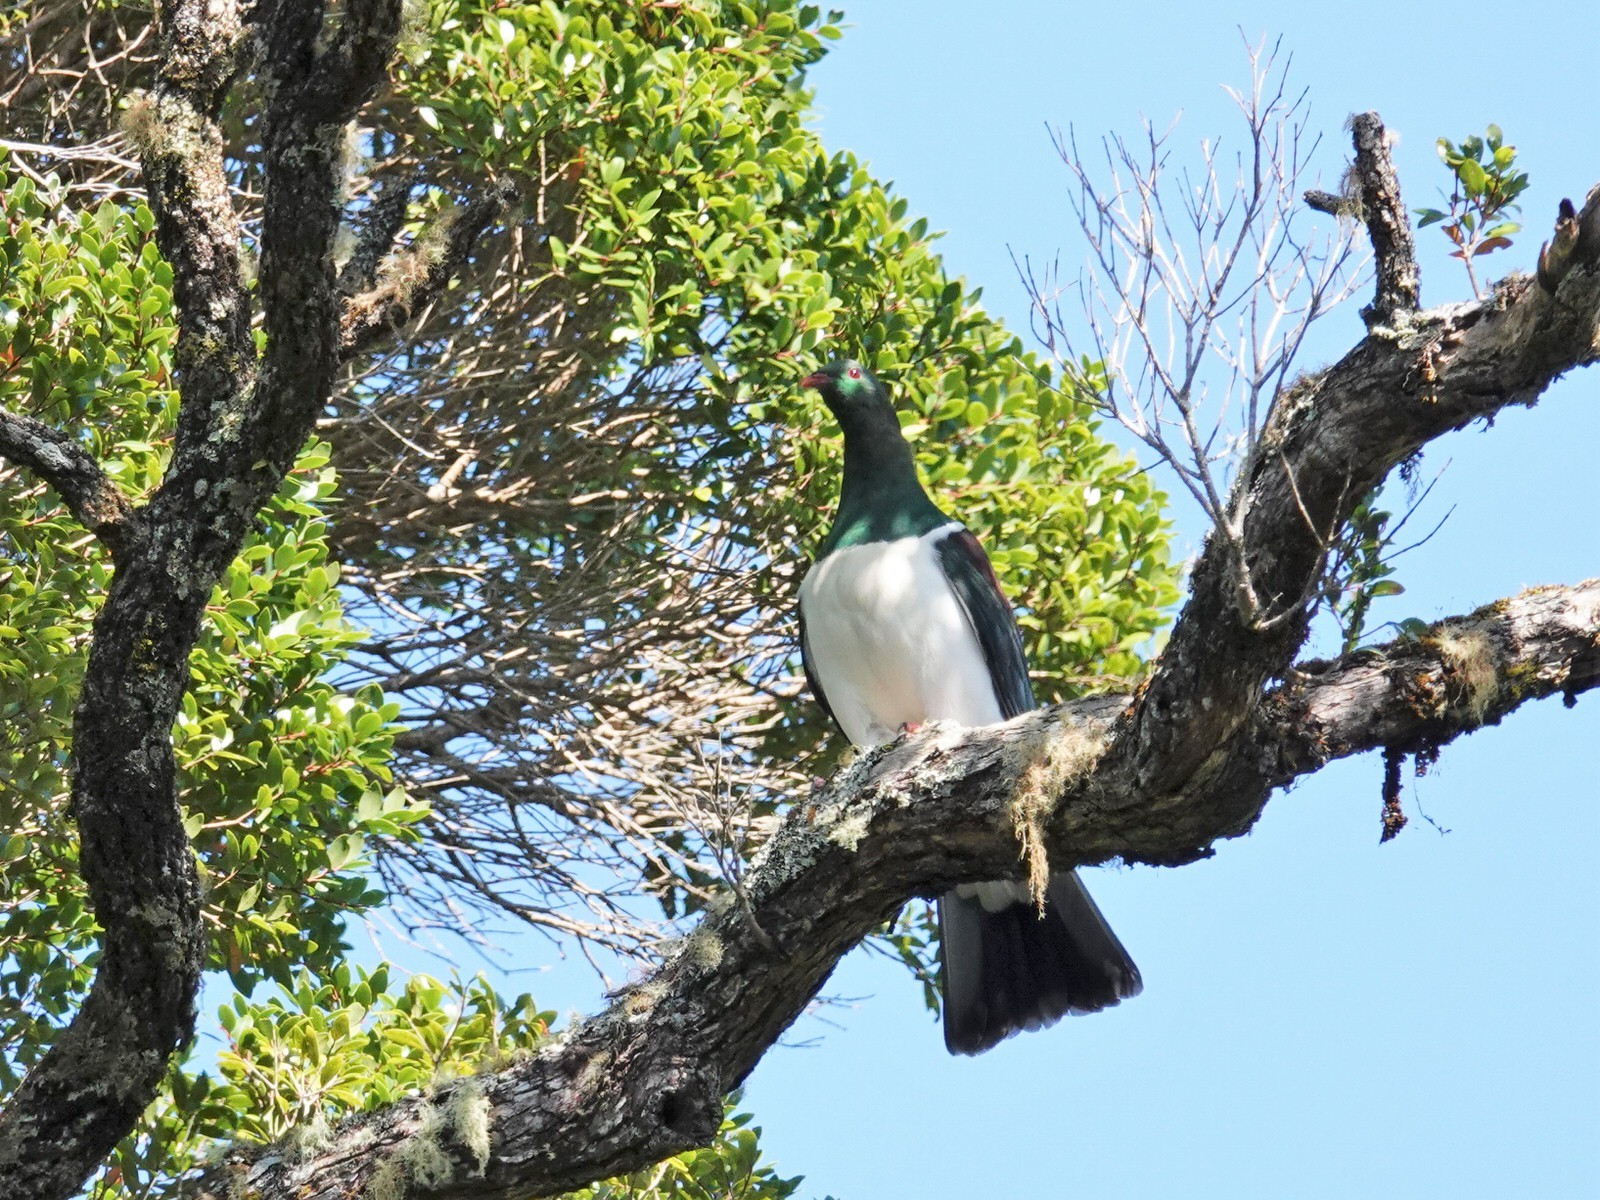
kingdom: Animalia
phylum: Chordata
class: Aves
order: Columbiformes
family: Columbidae
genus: Hemiphaga
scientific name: Hemiphaga novaeseelandiae
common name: New zealand pigeon
